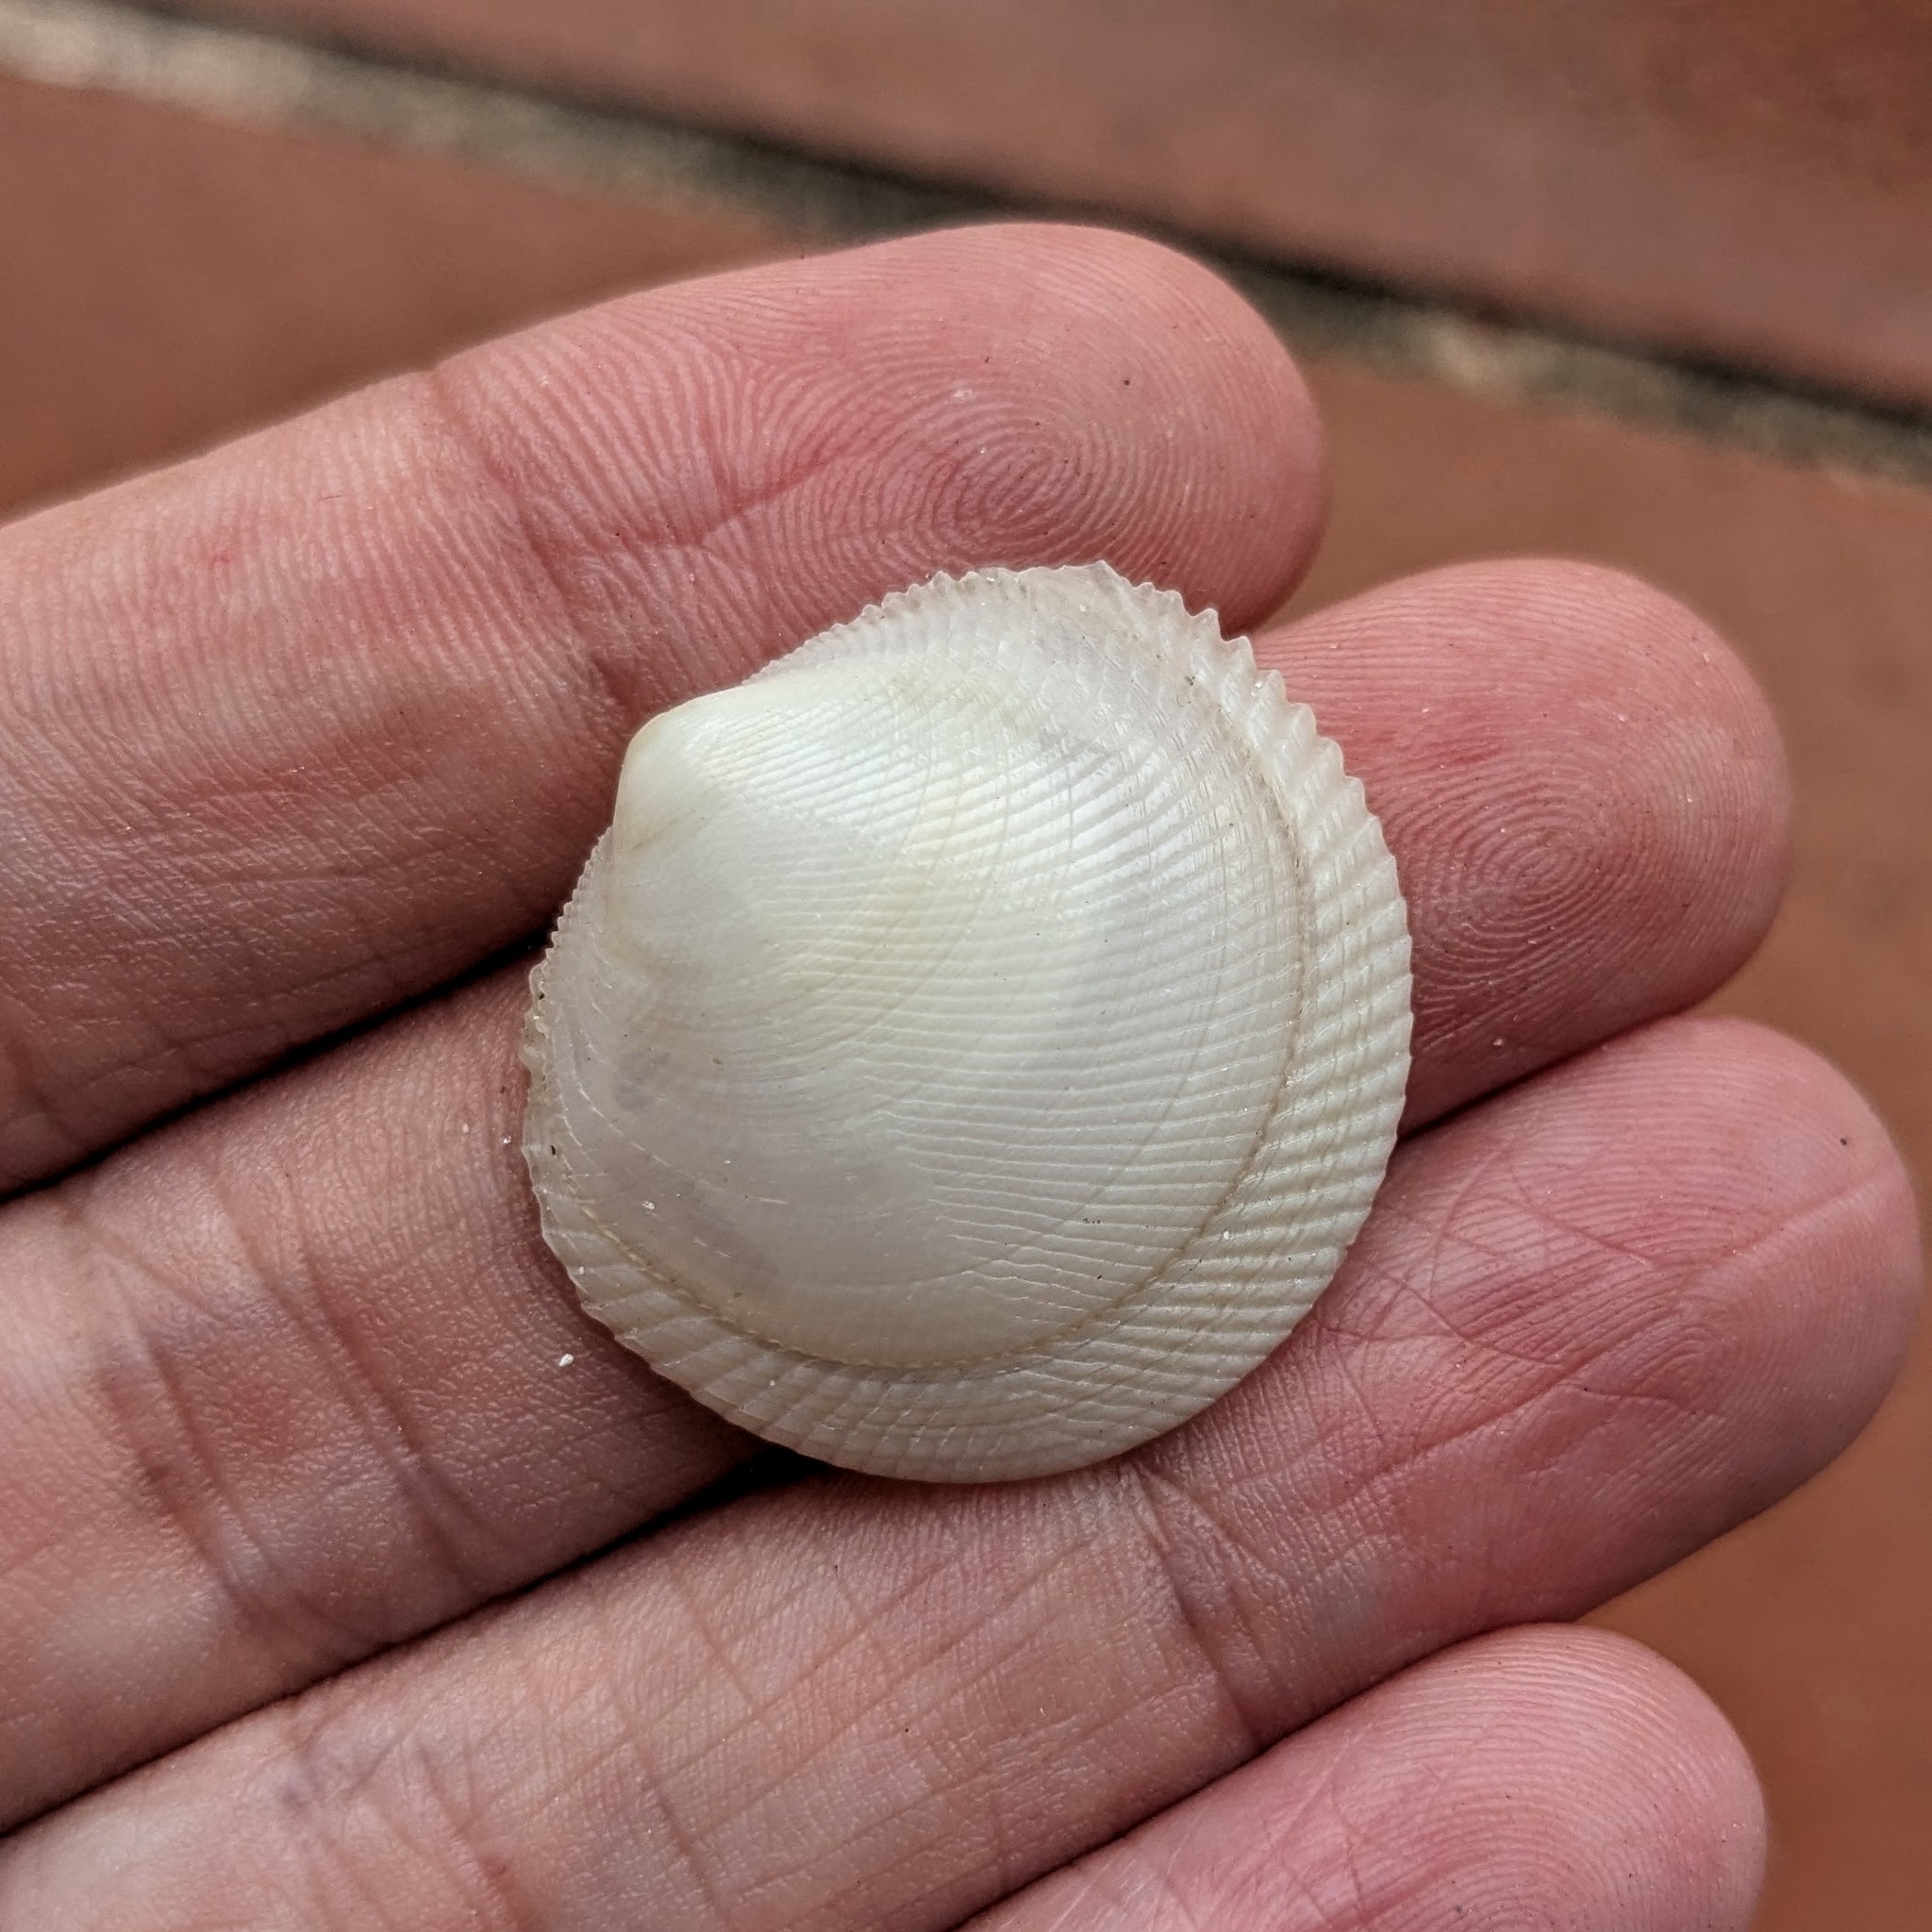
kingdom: Animalia
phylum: Mollusca
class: Bivalvia
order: Lucinida
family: Lucinidae
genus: Divaricella
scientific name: Divaricella dentata
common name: Dentate lucine
